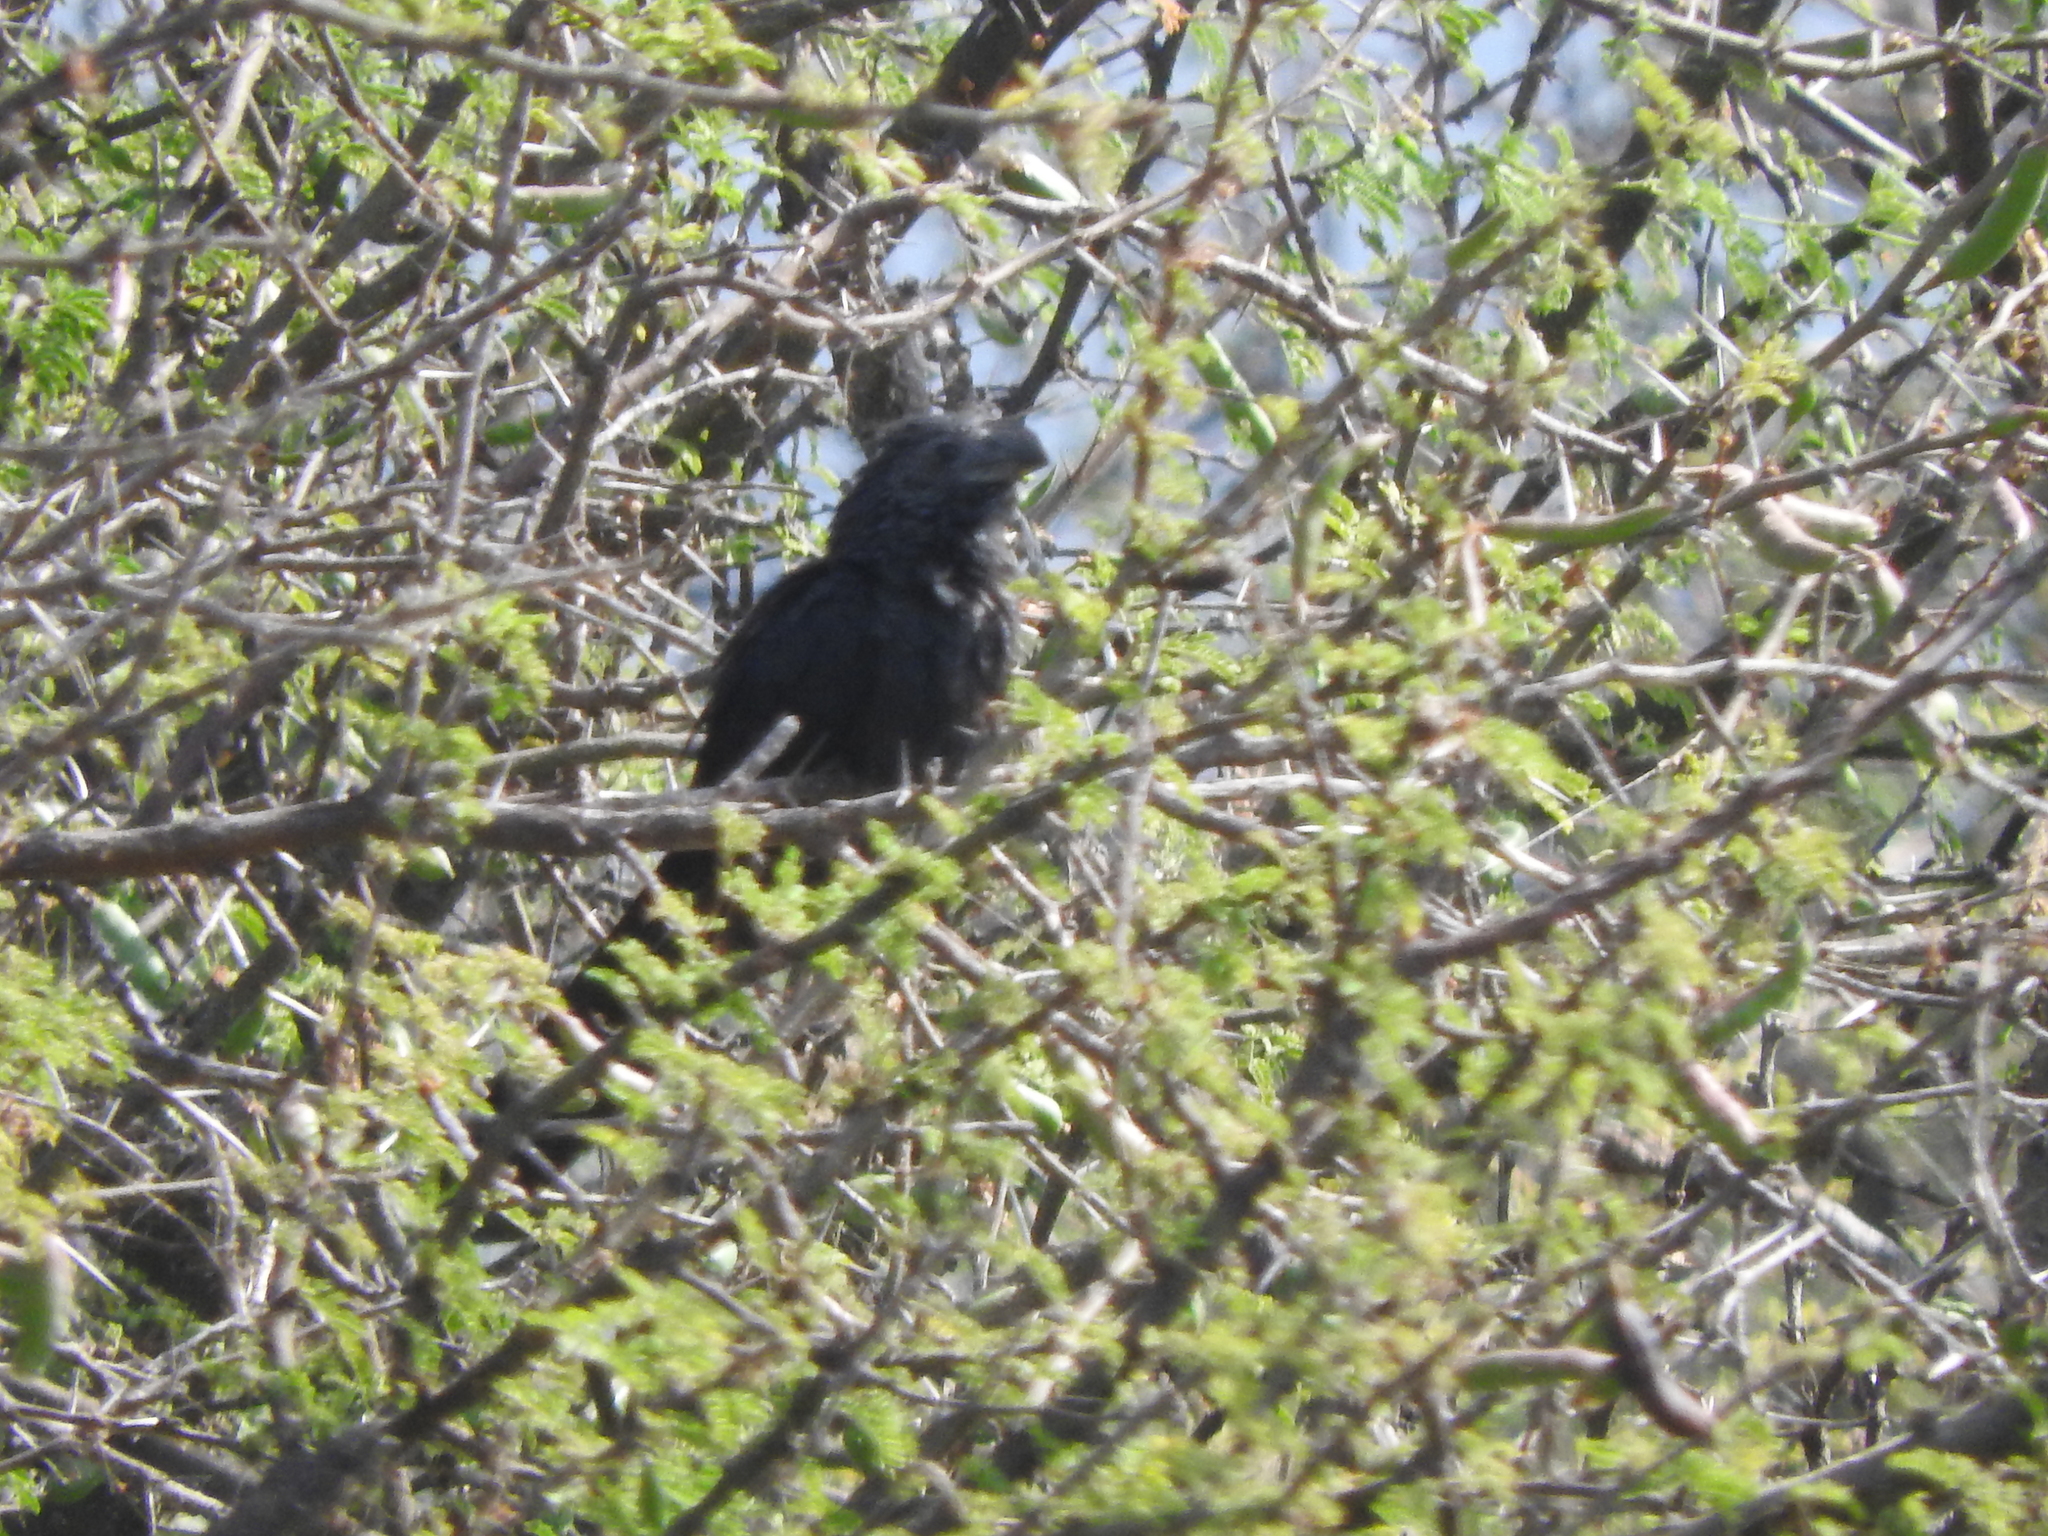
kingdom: Animalia
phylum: Chordata
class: Aves
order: Cuculiformes
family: Cuculidae
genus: Crotophaga
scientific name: Crotophaga sulcirostris
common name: Groove-billed ani
